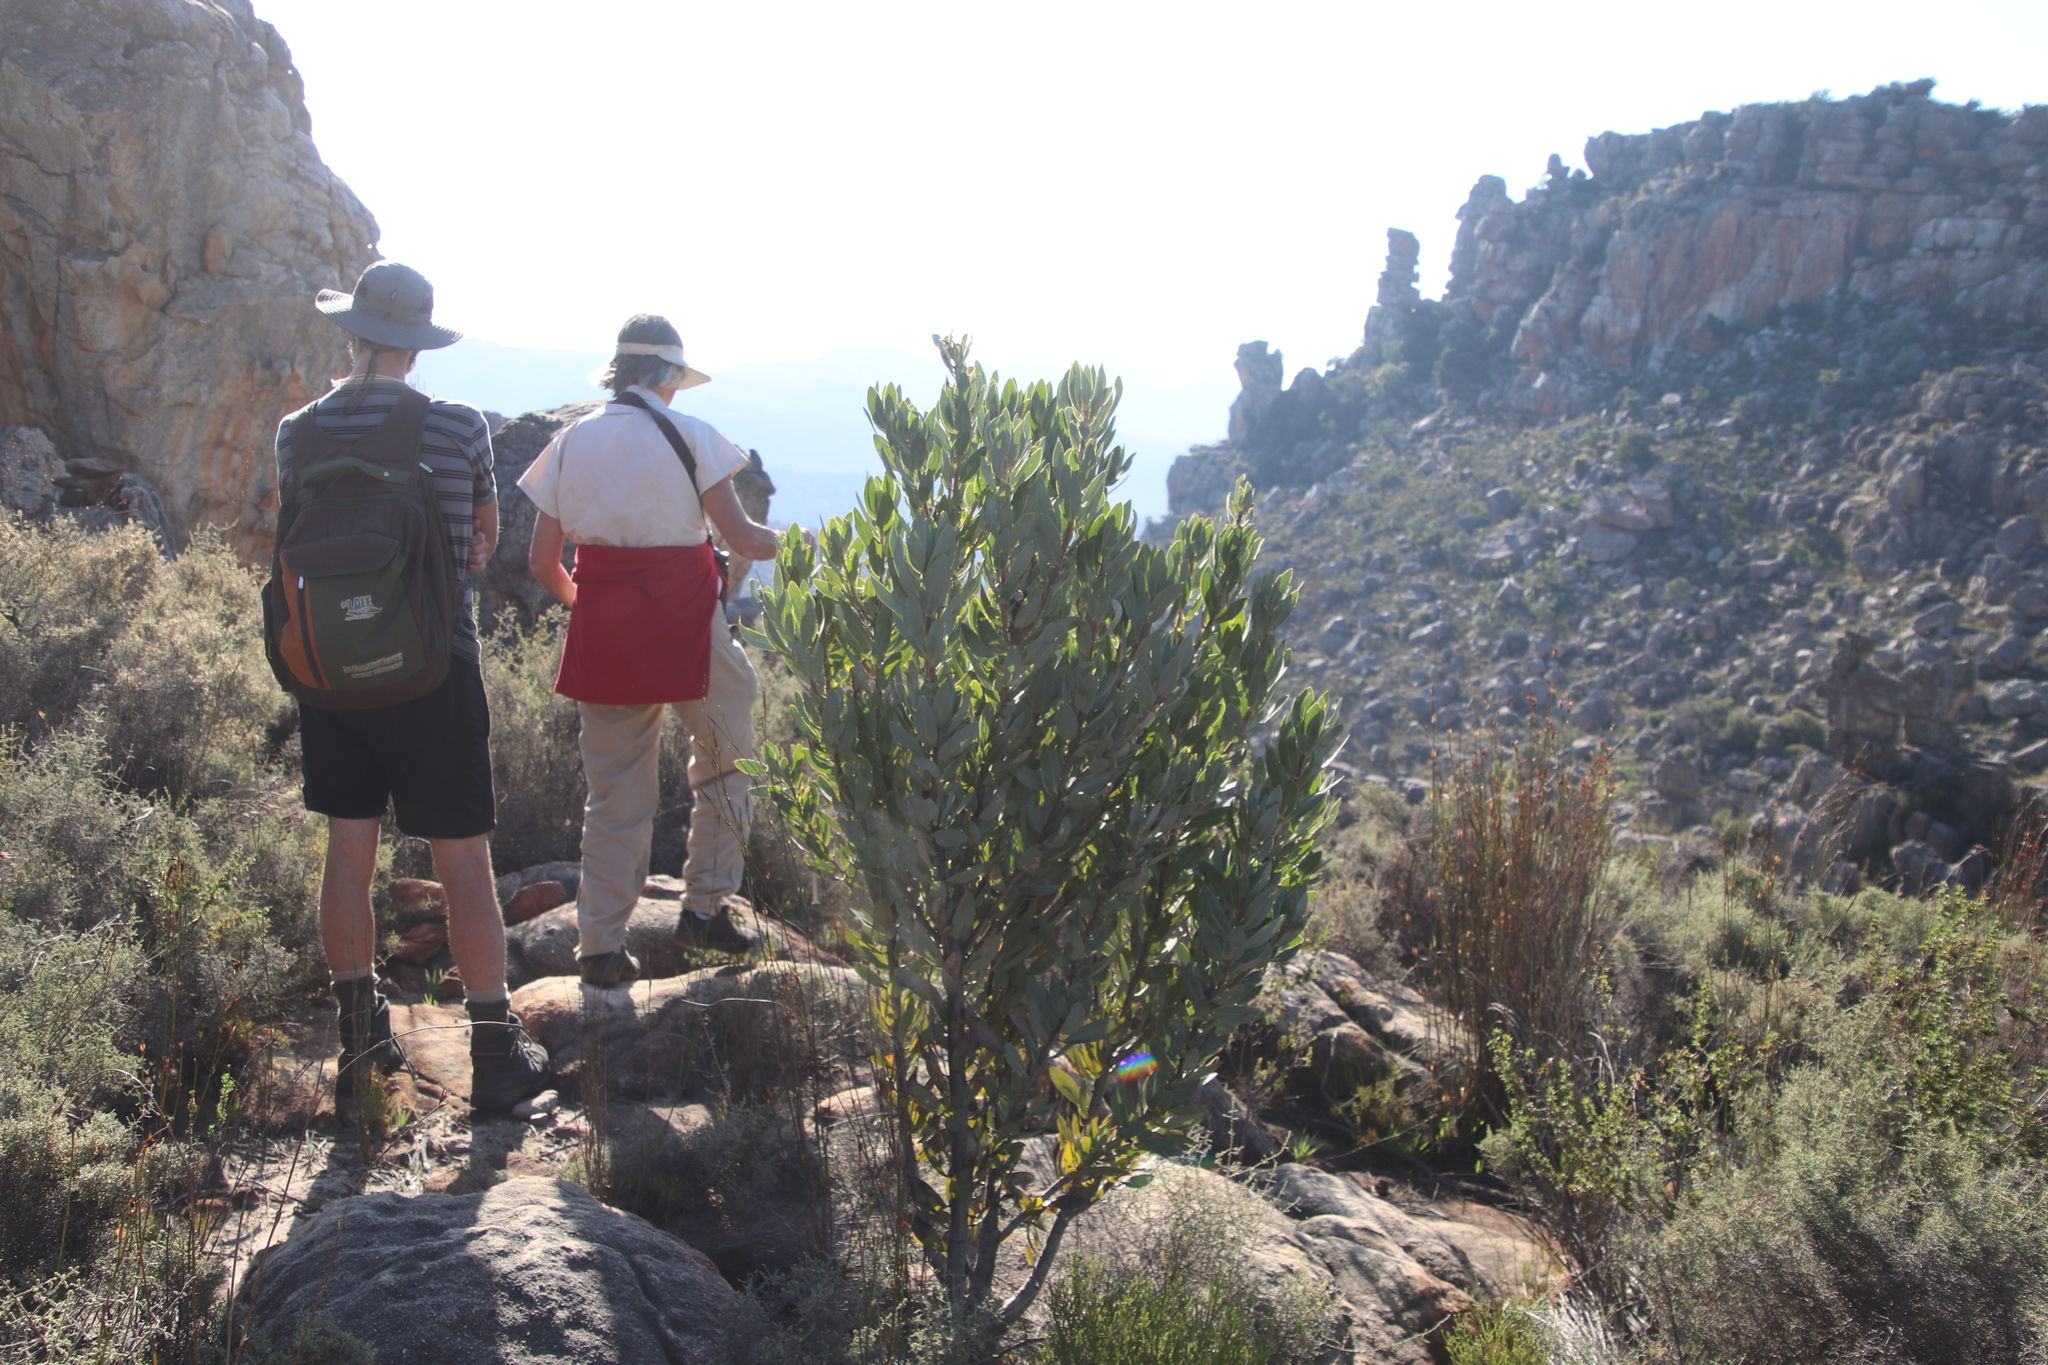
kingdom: Plantae
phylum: Tracheophyta
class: Magnoliopsida
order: Proteales
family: Proteaceae
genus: Protea
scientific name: Protea laurifolia
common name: Grey-leaf sugarbsh
